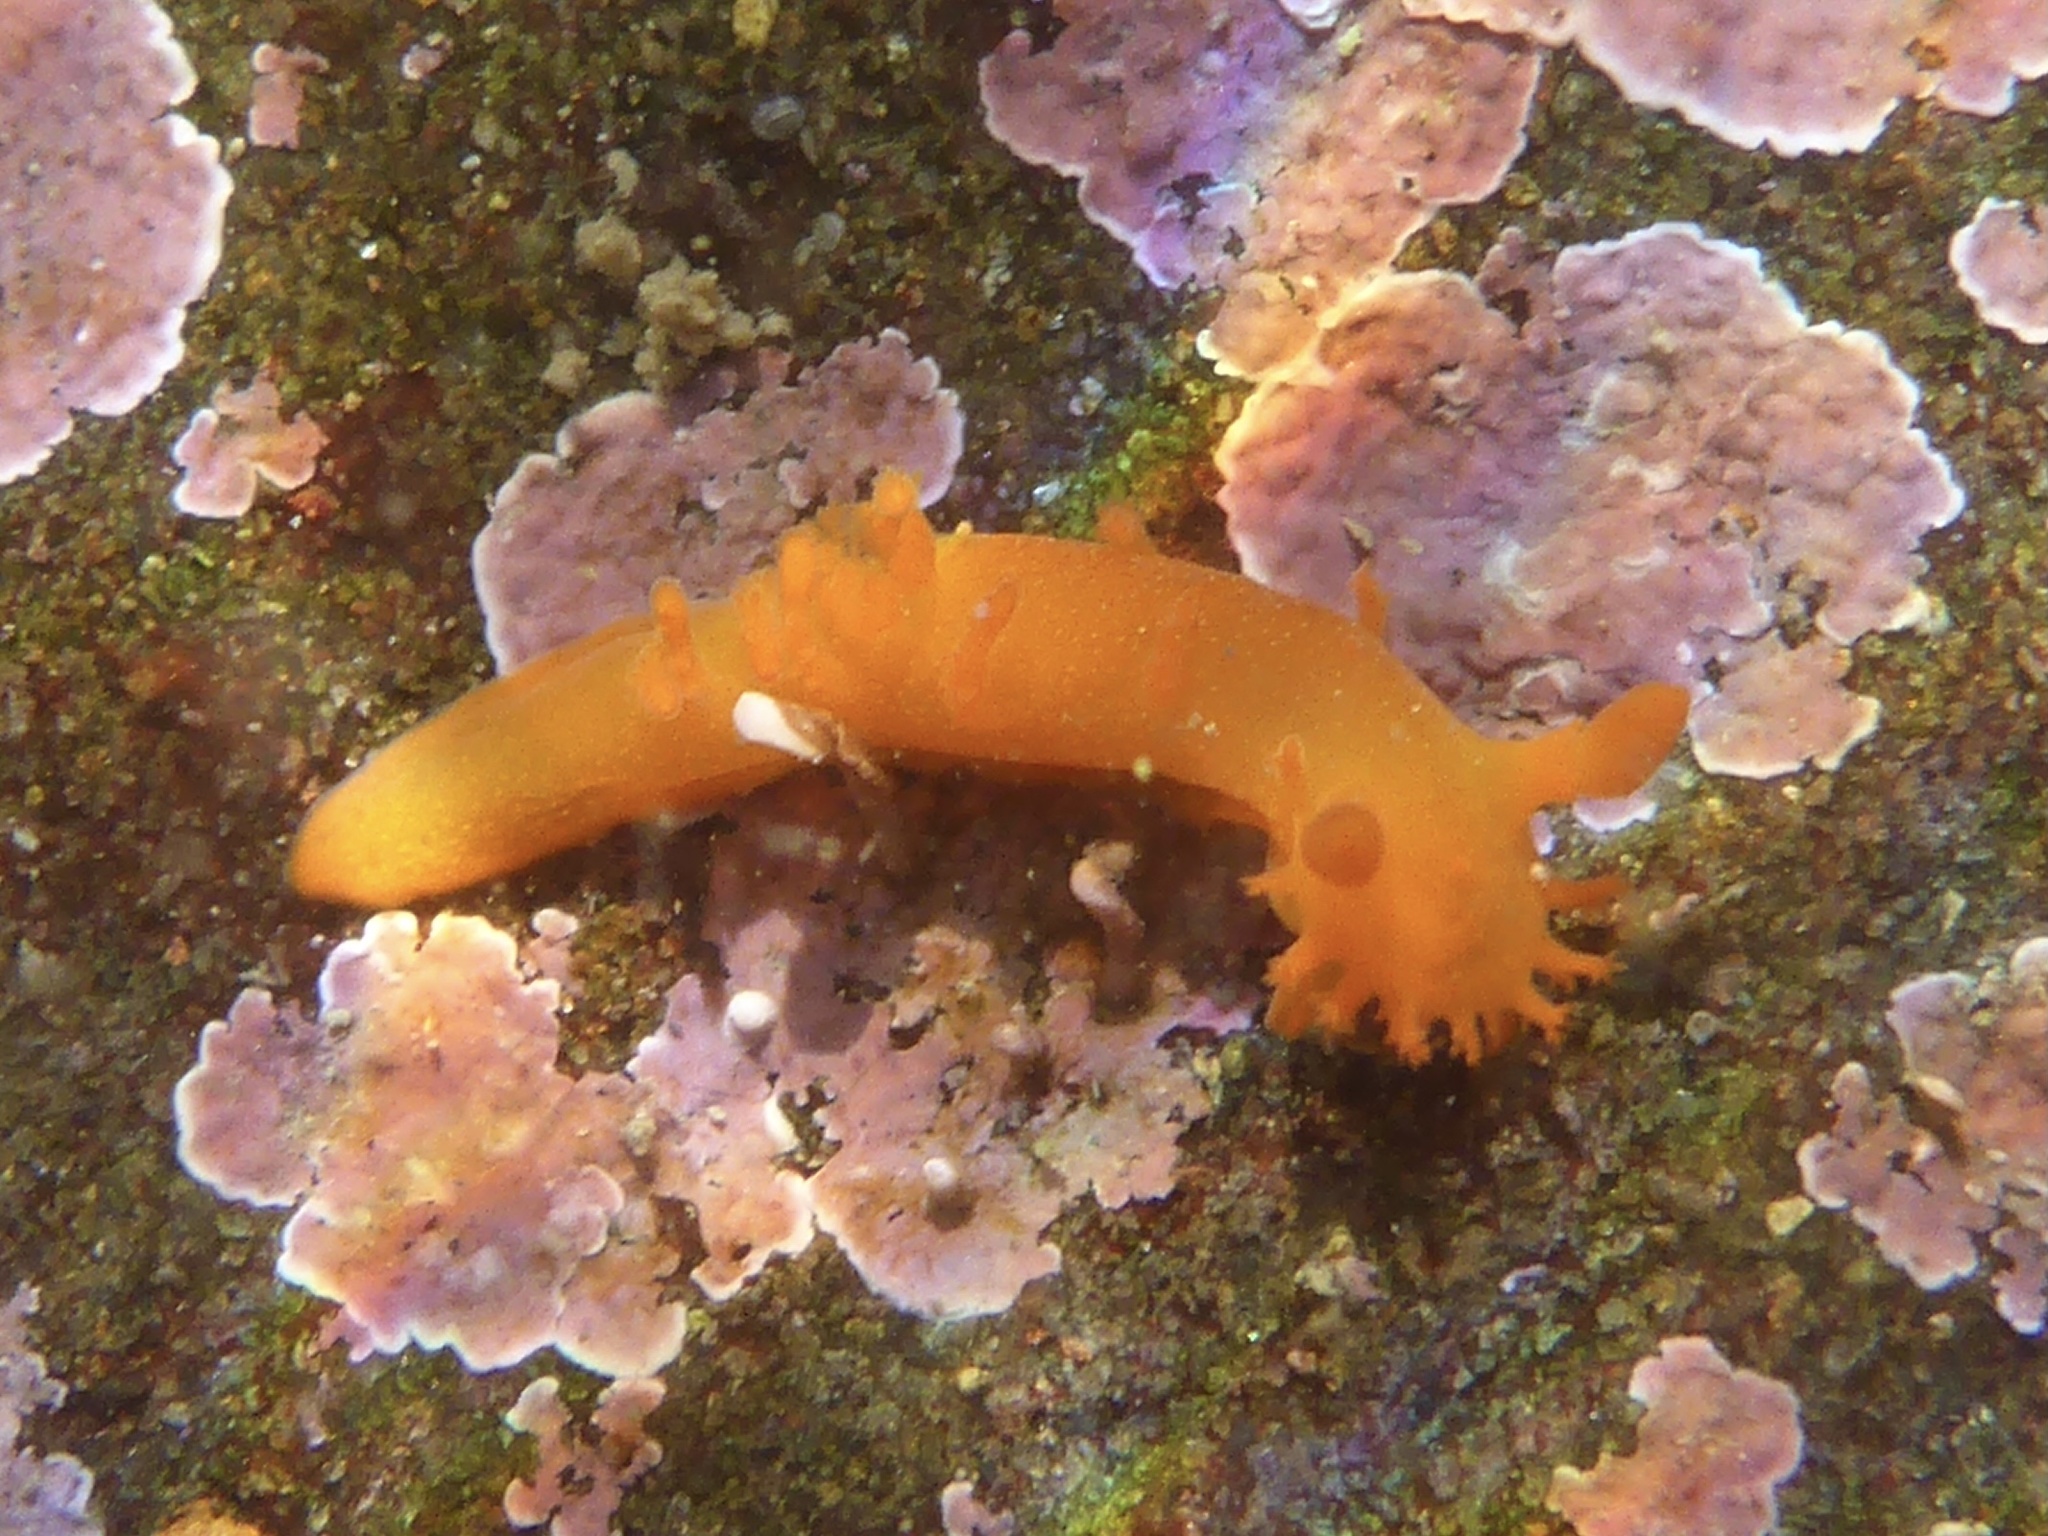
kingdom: Animalia
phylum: Mollusca
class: Gastropoda
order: Nudibranchia
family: Polyceridae
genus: Triopha
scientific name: Triopha maculata
